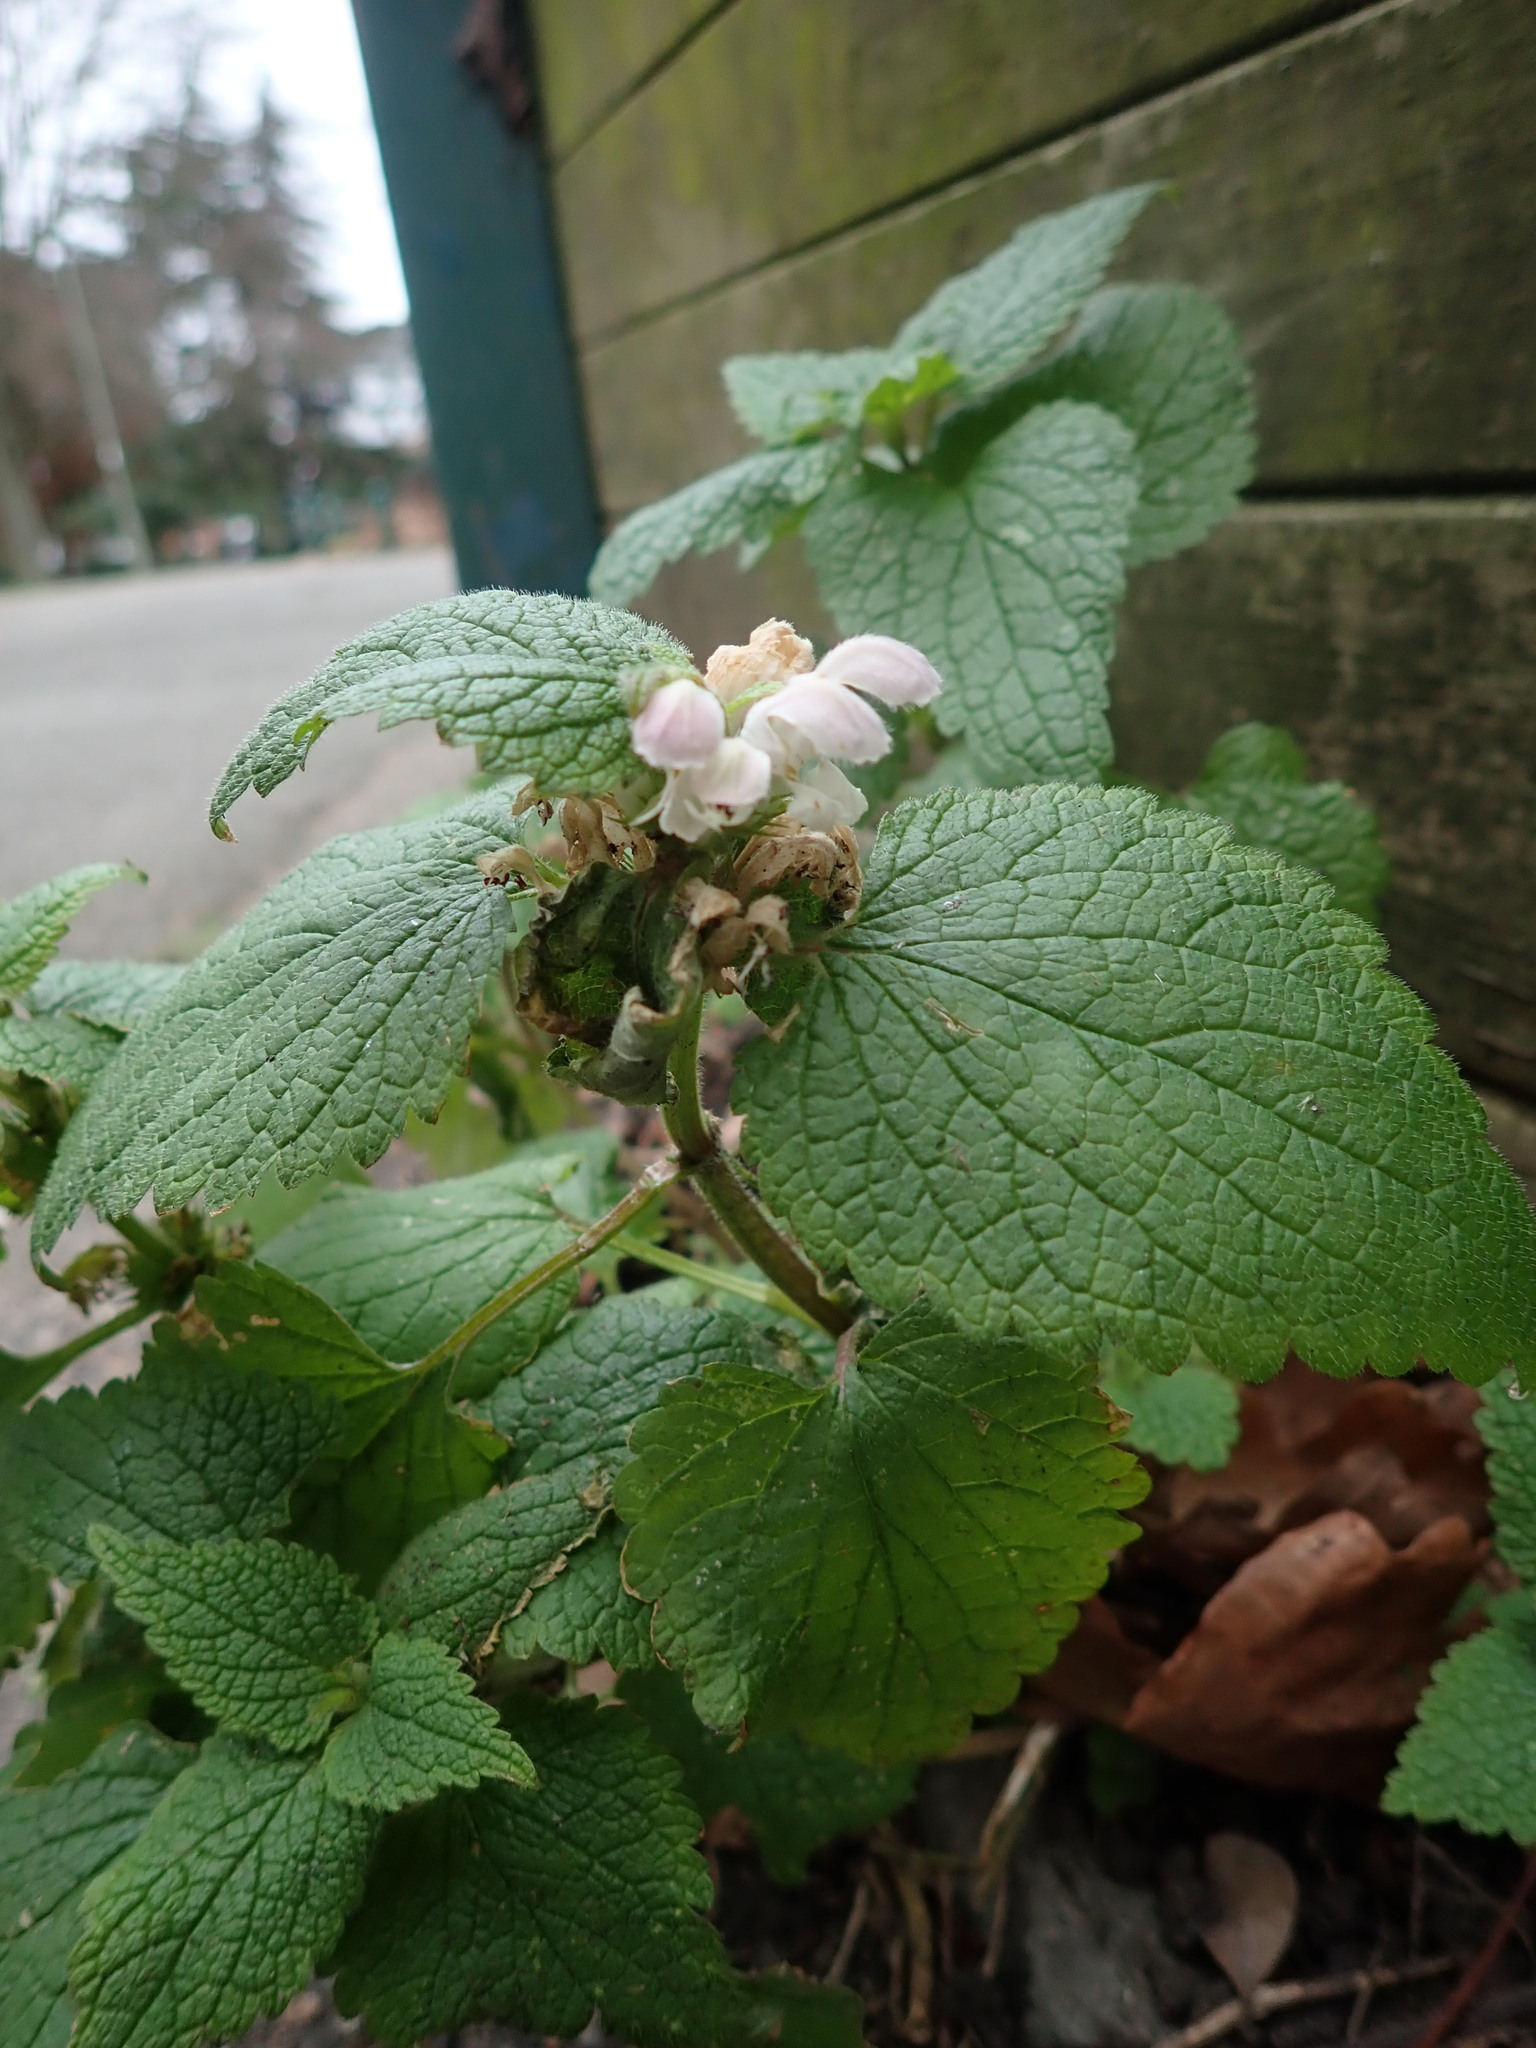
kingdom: Plantae
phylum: Tracheophyta
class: Magnoliopsida
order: Lamiales
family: Lamiaceae
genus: Lamium
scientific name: Lamium album
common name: White dead-nettle
